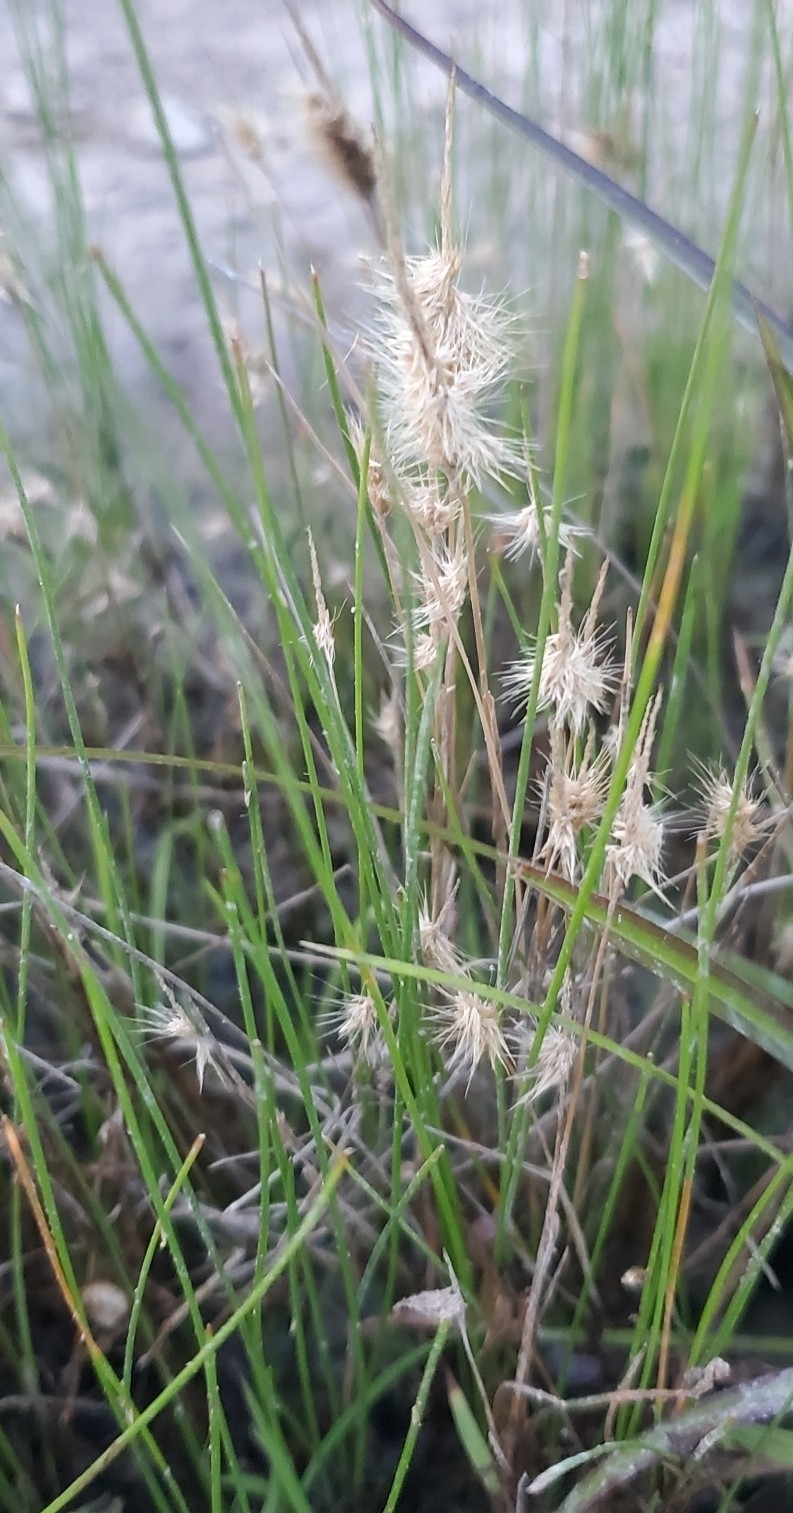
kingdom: Plantae
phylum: Tracheophyta
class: Liliopsida
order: Poales
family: Poaceae
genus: Bouteloua
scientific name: Bouteloua rigidiseta
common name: Texas grama
